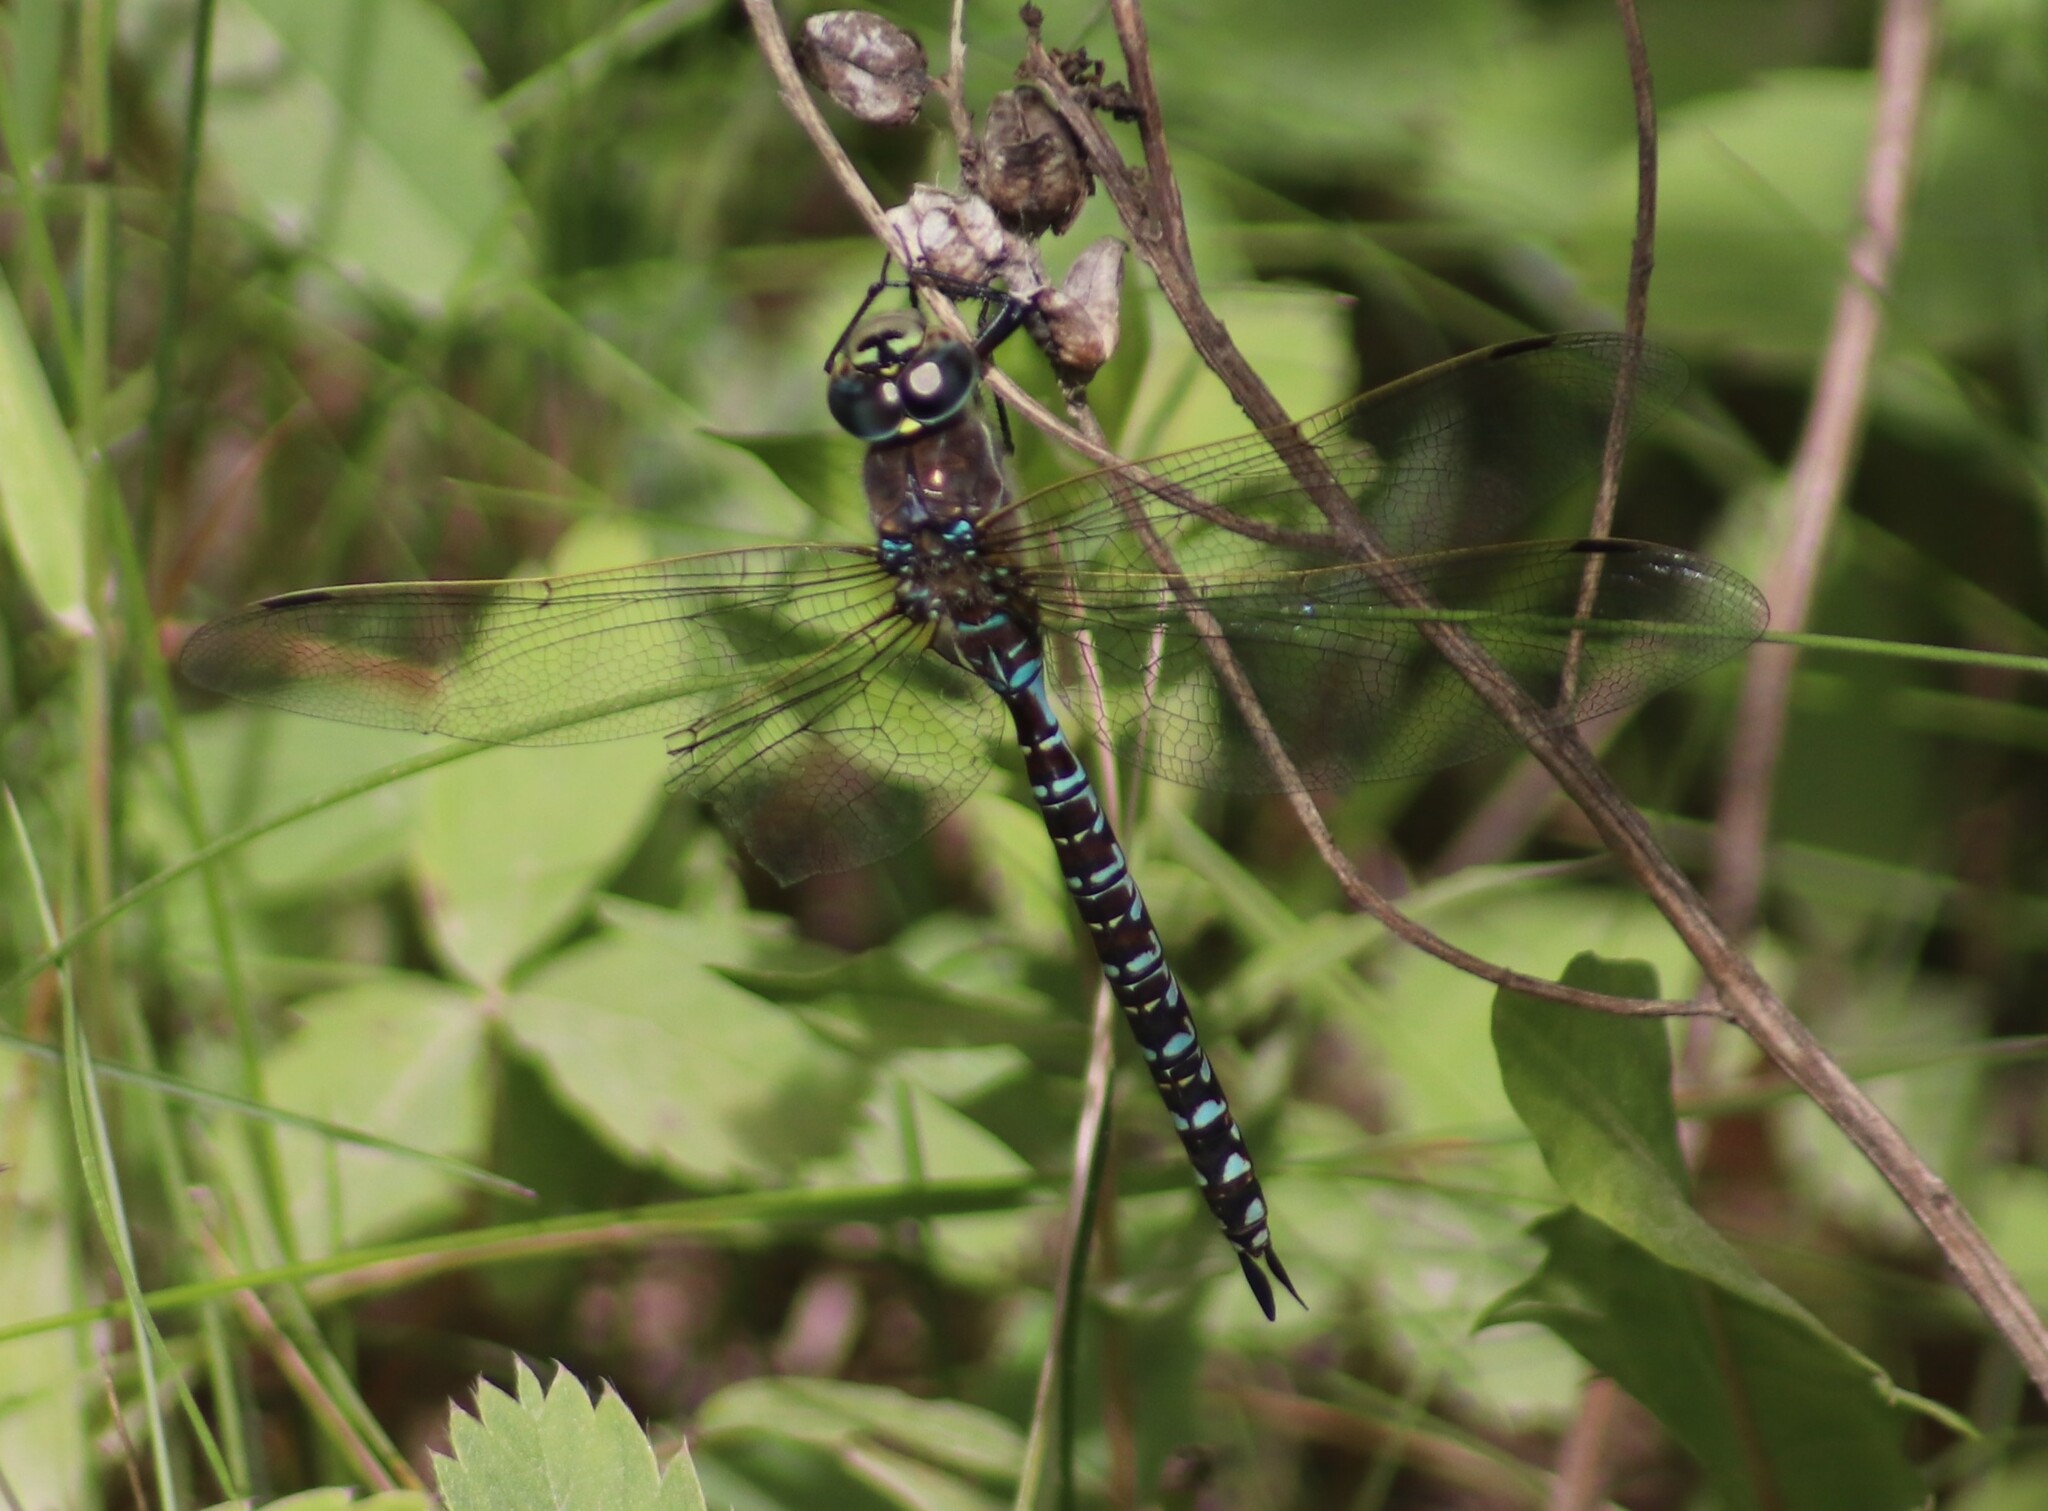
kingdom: Animalia
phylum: Arthropoda
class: Insecta
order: Odonata
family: Aeshnidae
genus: Aeshna
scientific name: Aeshna interrupta
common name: Variable darner
